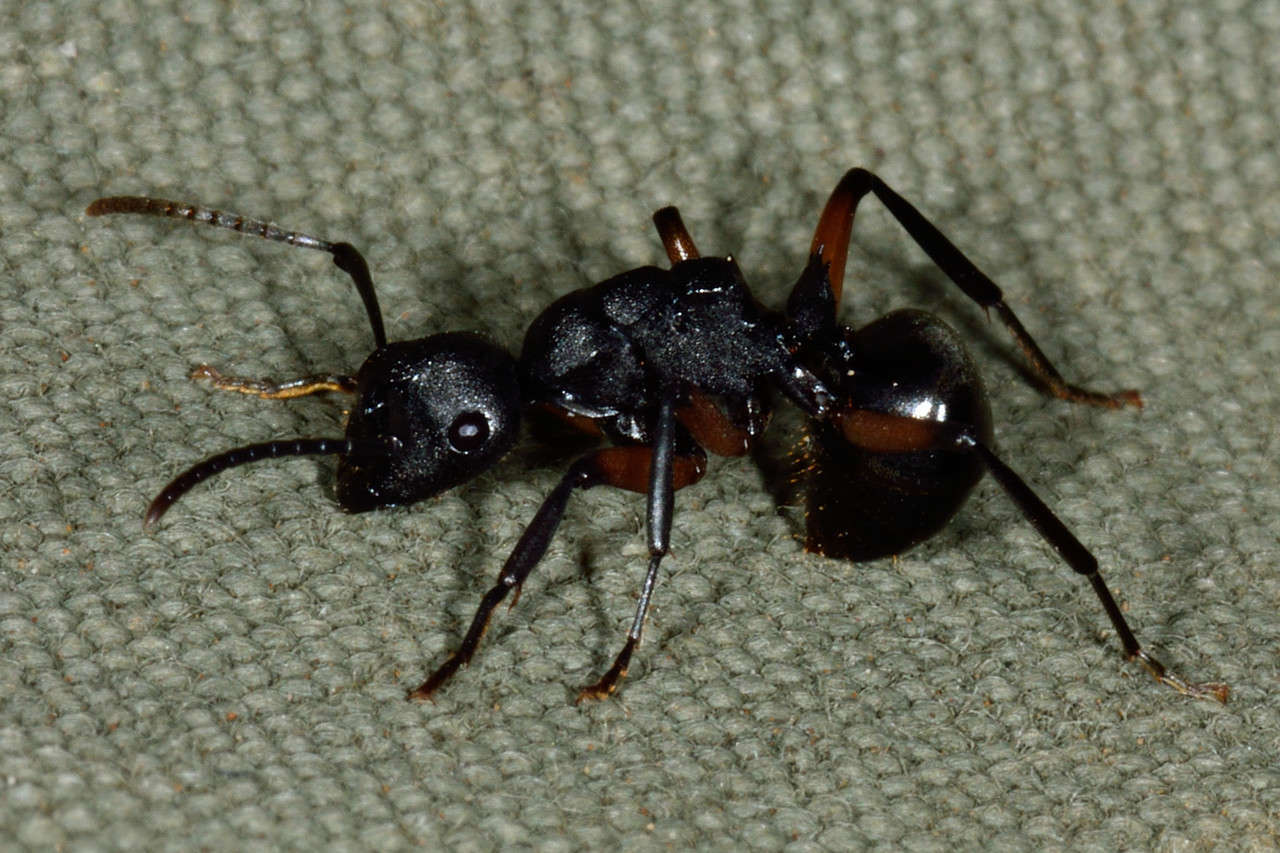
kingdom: Animalia
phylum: Arthropoda
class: Insecta
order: Hymenoptera
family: Formicidae
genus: Polyrhachis
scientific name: Polyrhachis femorata
